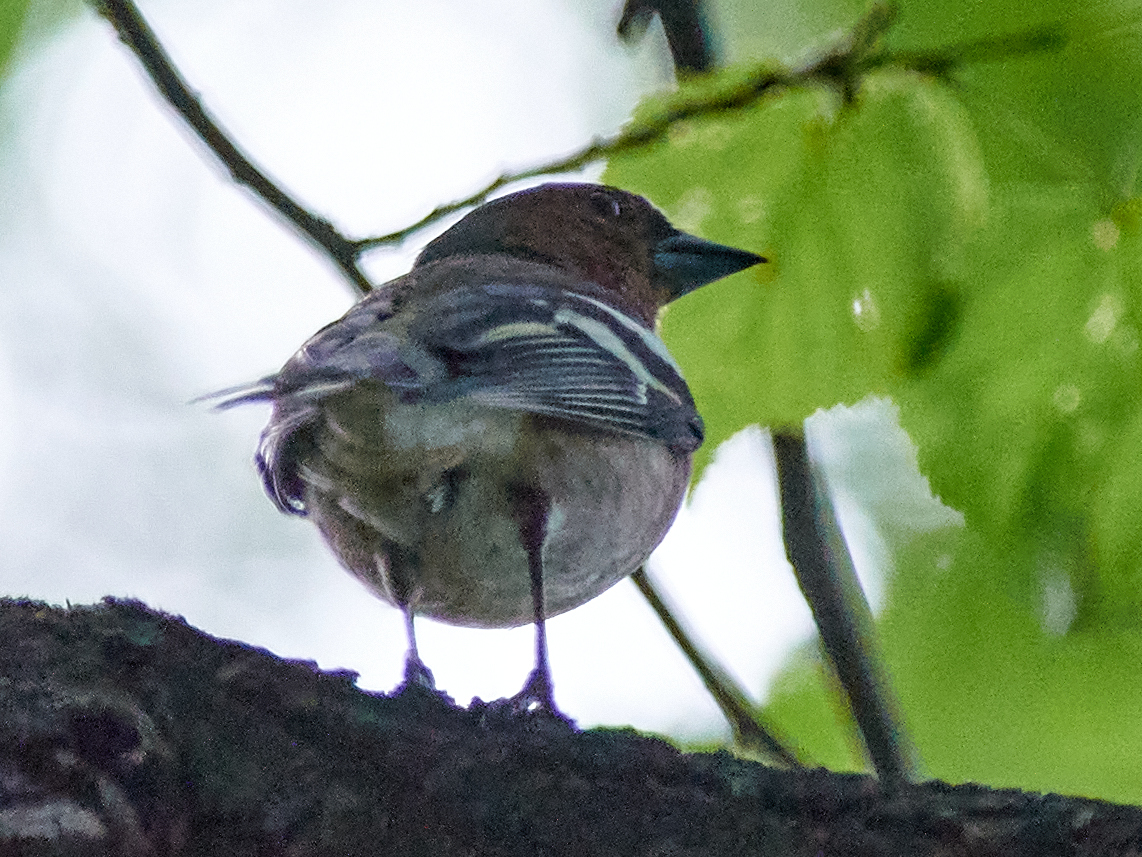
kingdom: Animalia
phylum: Chordata
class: Aves
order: Passeriformes
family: Fringillidae
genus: Fringilla
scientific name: Fringilla coelebs
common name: Common chaffinch
